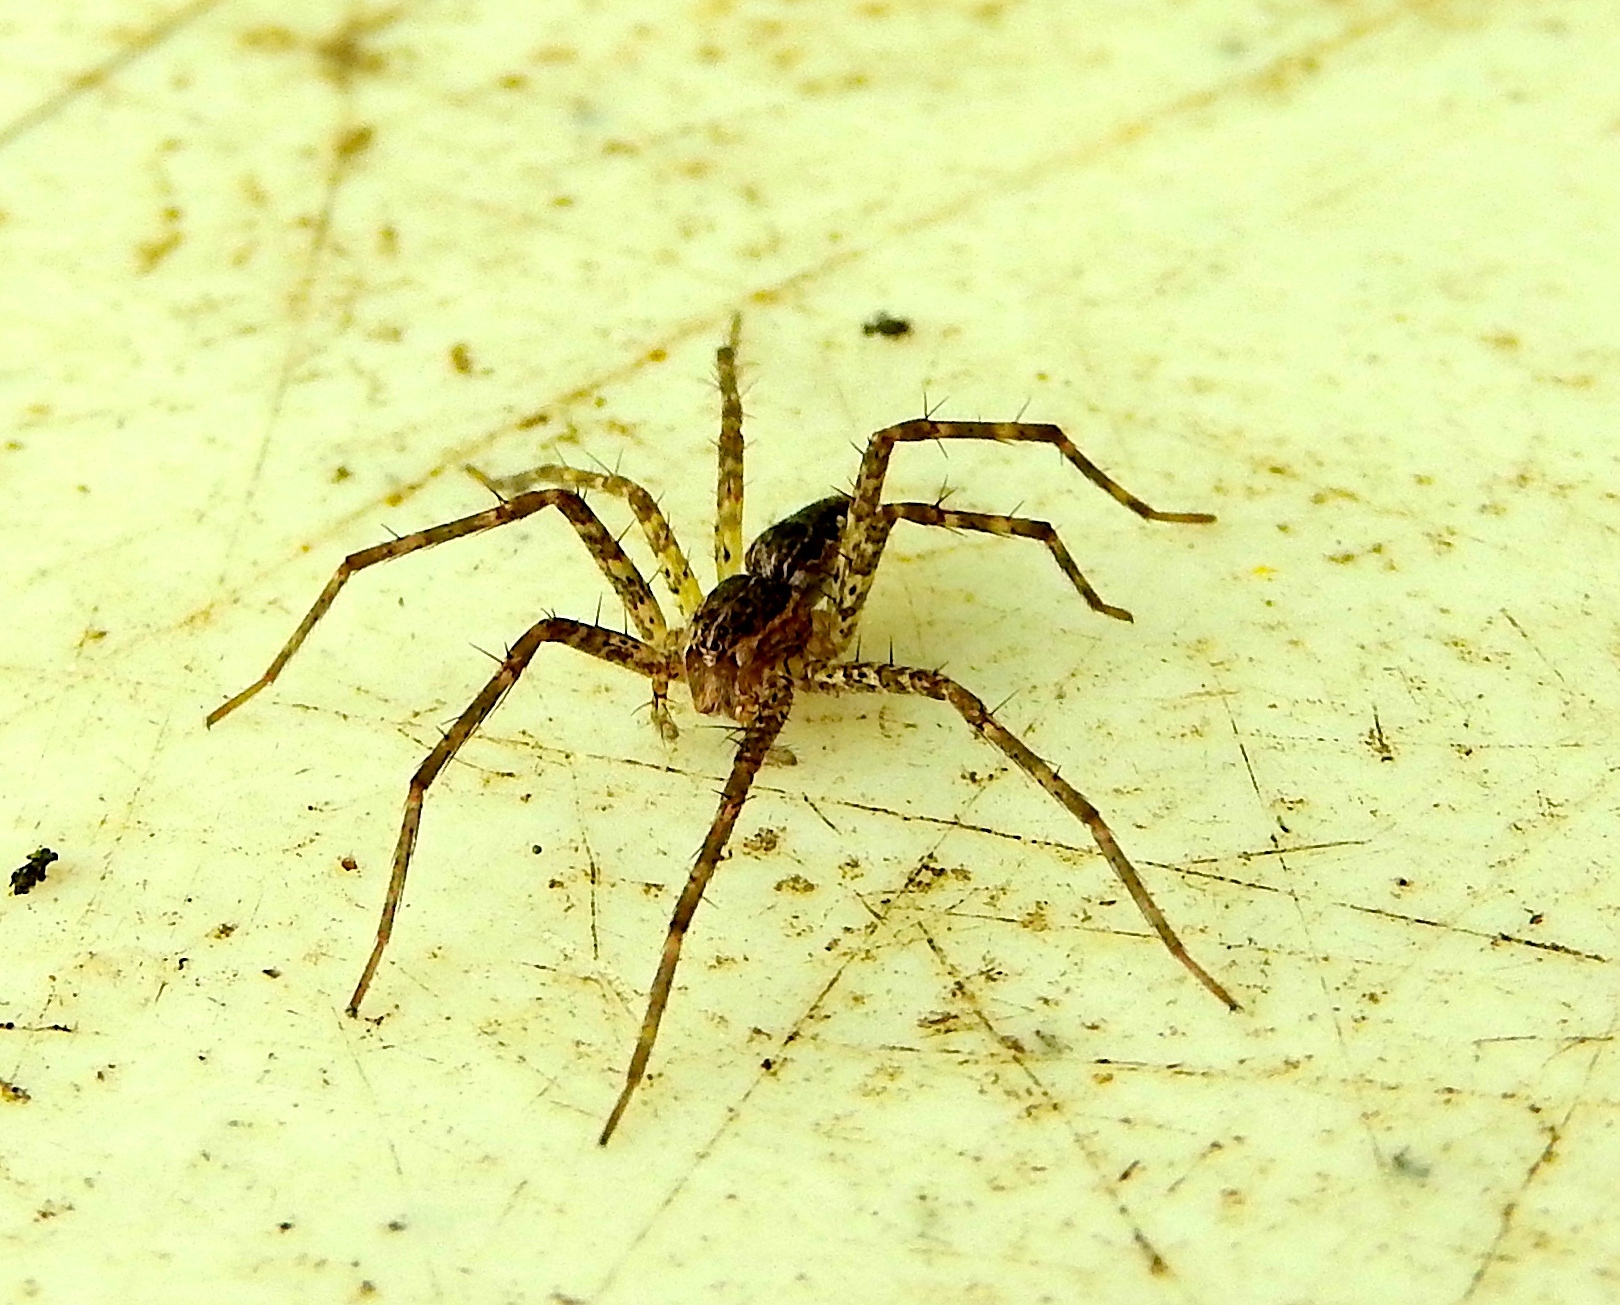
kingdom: Animalia
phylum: Arthropoda
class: Arachnida
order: Araneae
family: Pisauridae
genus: Tinus
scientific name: Tinus
